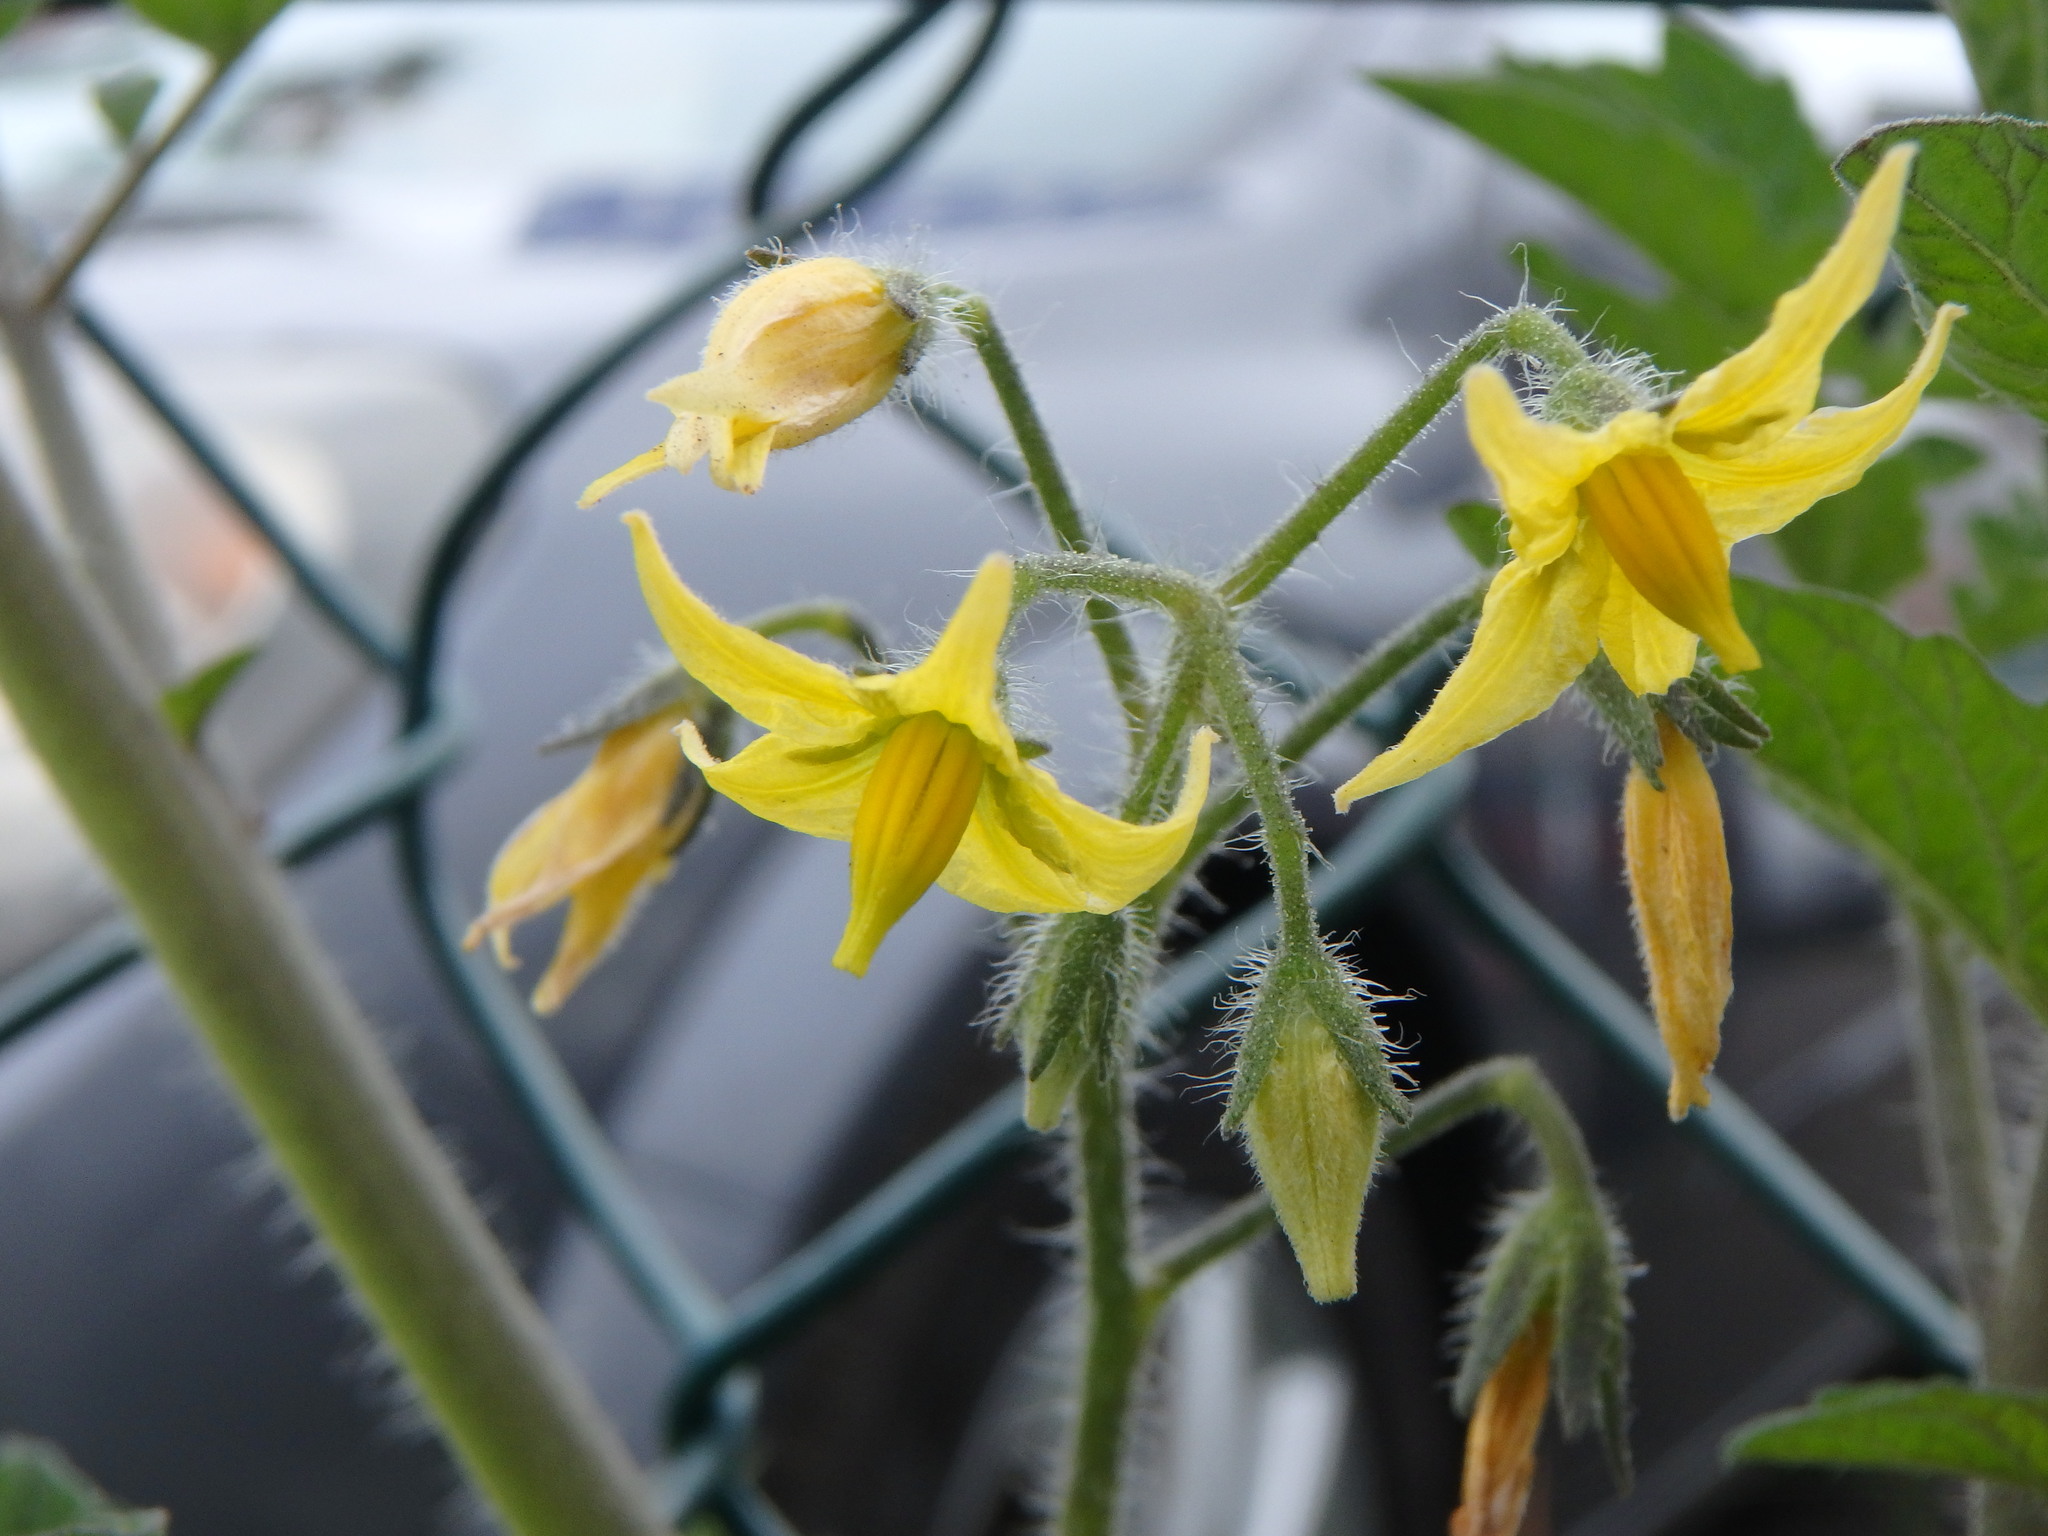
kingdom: Plantae
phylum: Tracheophyta
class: Magnoliopsida
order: Solanales
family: Solanaceae
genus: Solanum
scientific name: Solanum lycopersicum
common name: Garden tomato
